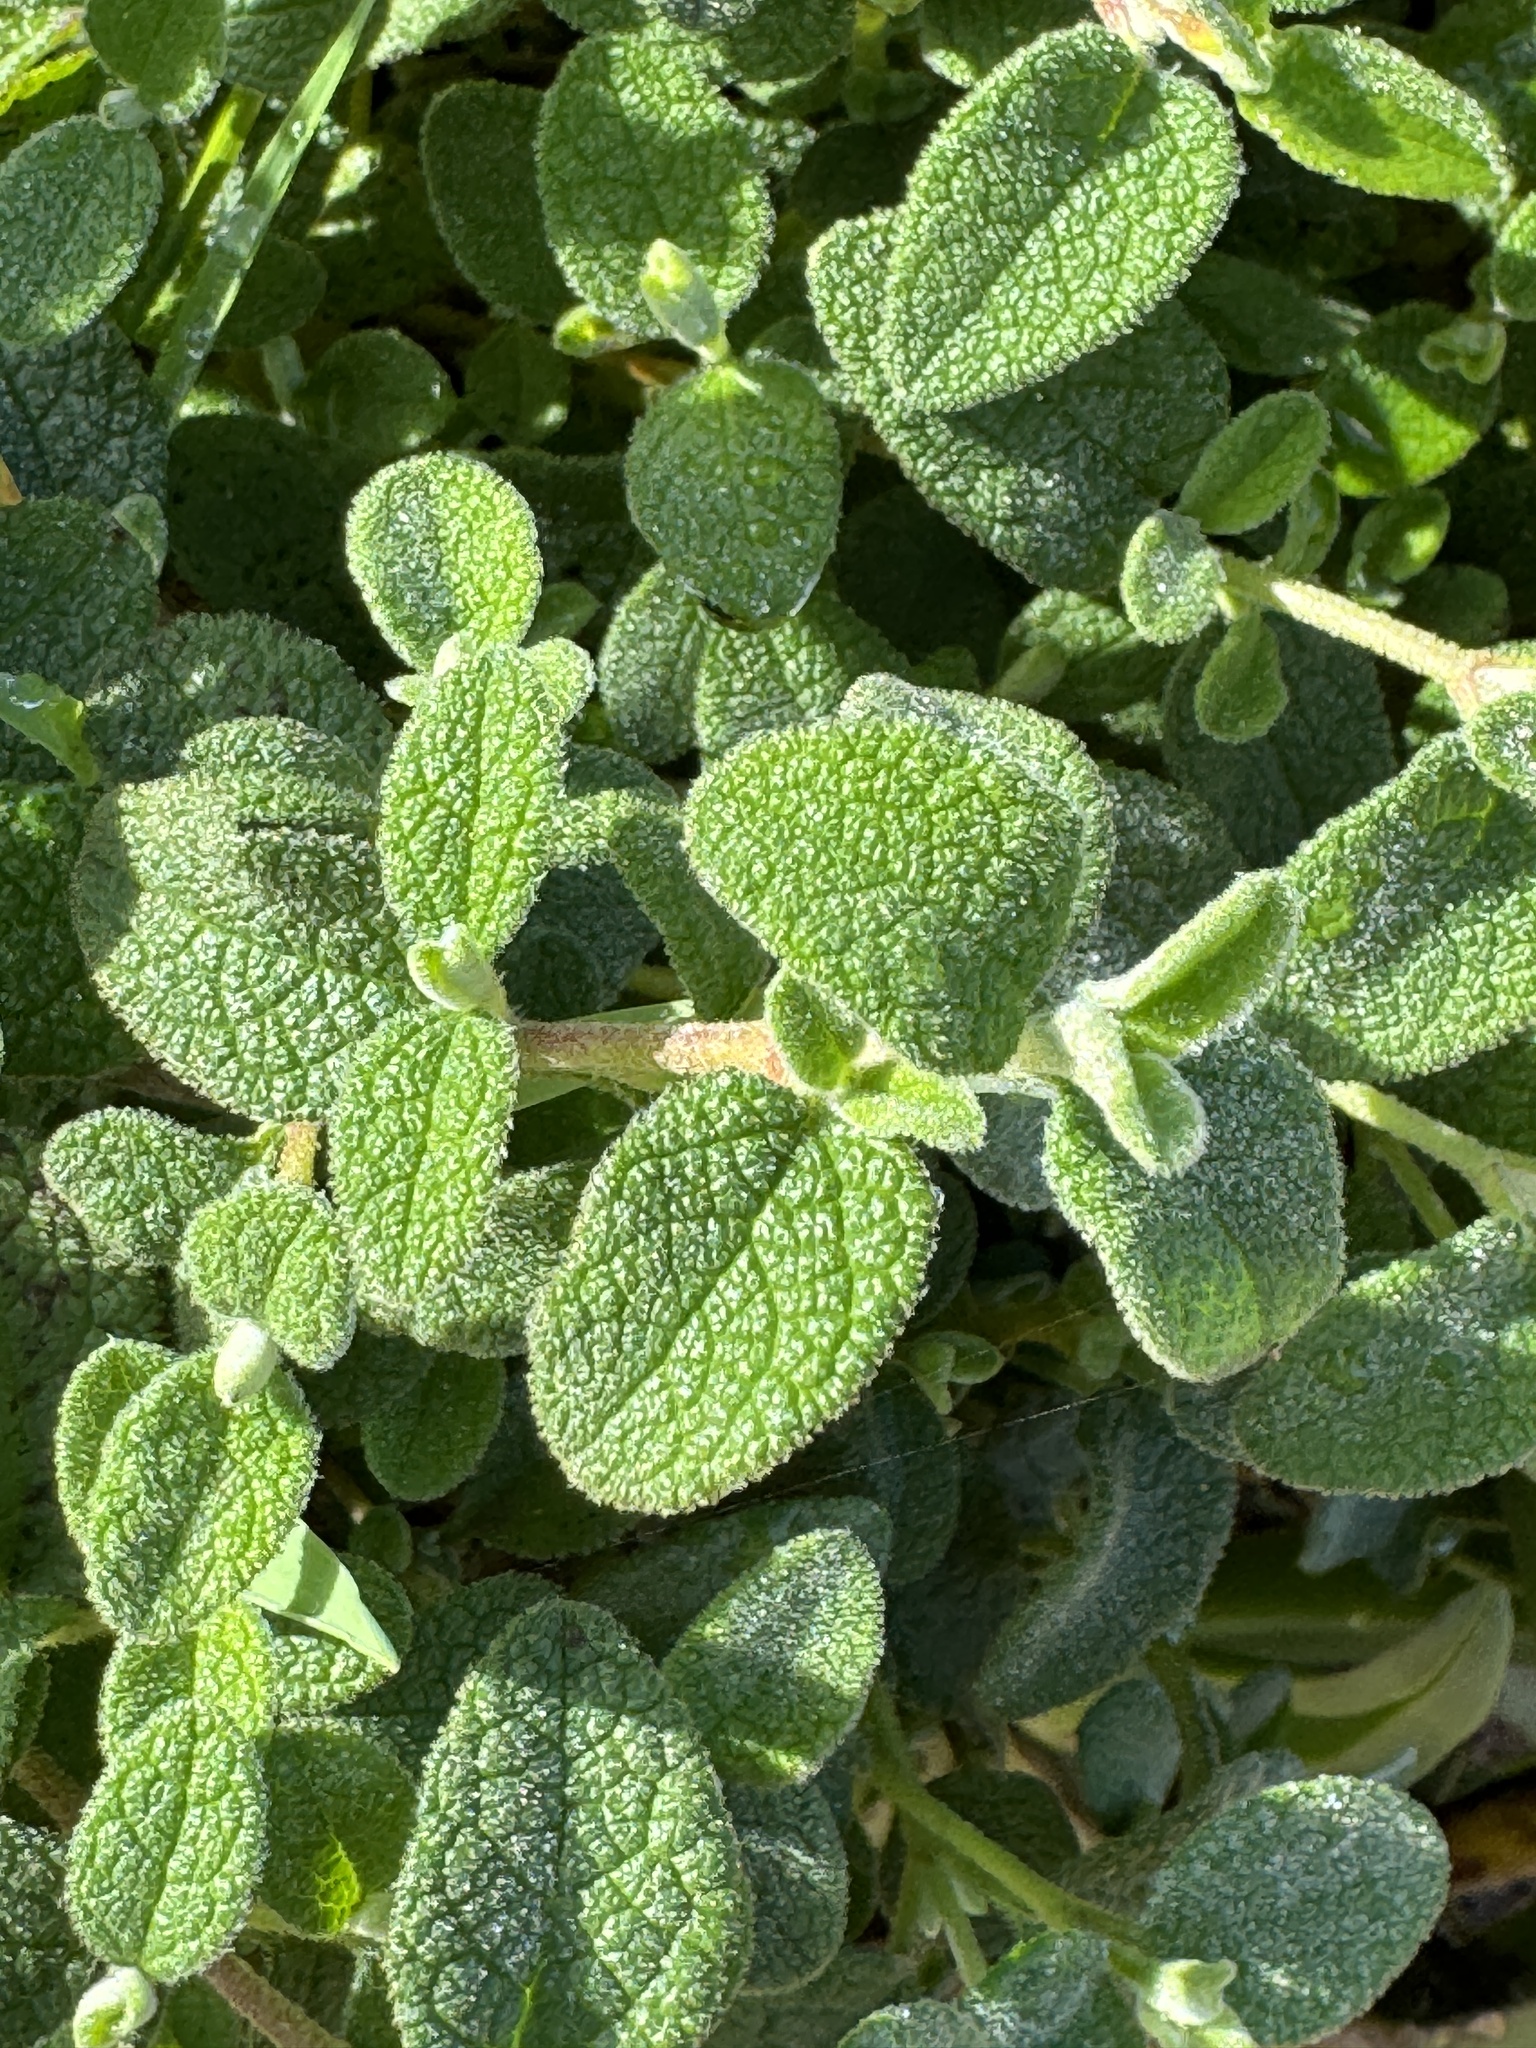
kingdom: Plantae
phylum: Tracheophyta
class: Magnoliopsida
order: Malvales
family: Cistaceae
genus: Cistus
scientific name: Cistus salviifolius
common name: Salvia cistus
